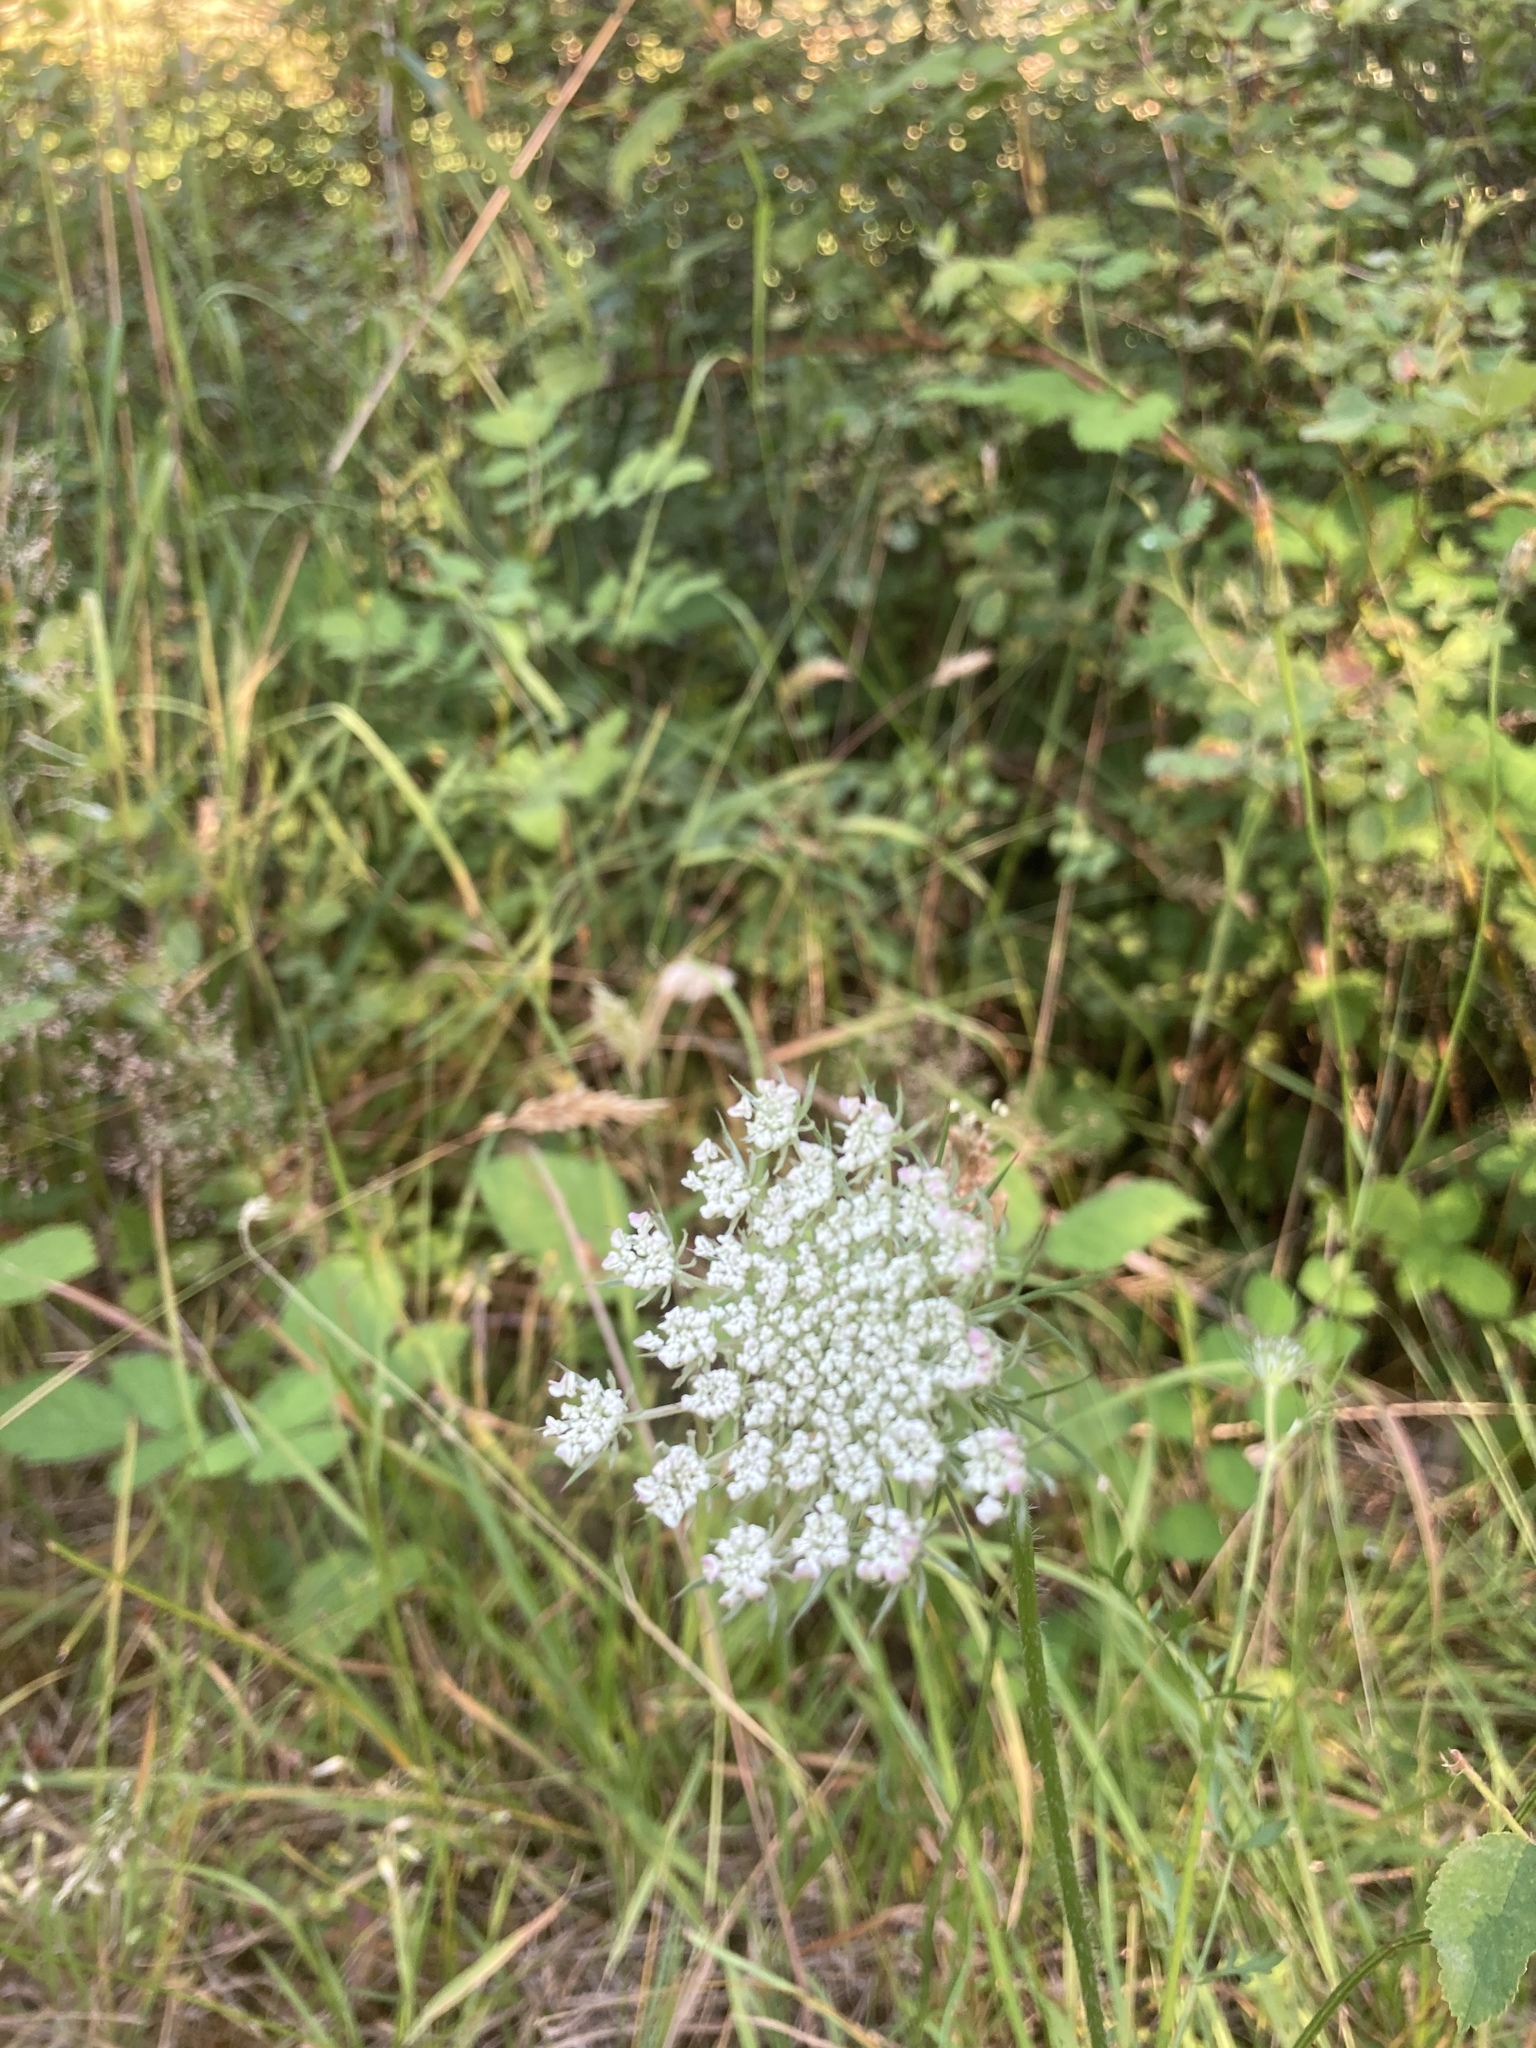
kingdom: Plantae
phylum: Tracheophyta
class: Magnoliopsida
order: Apiales
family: Apiaceae
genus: Daucus
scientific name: Daucus carota
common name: Wild carrot
